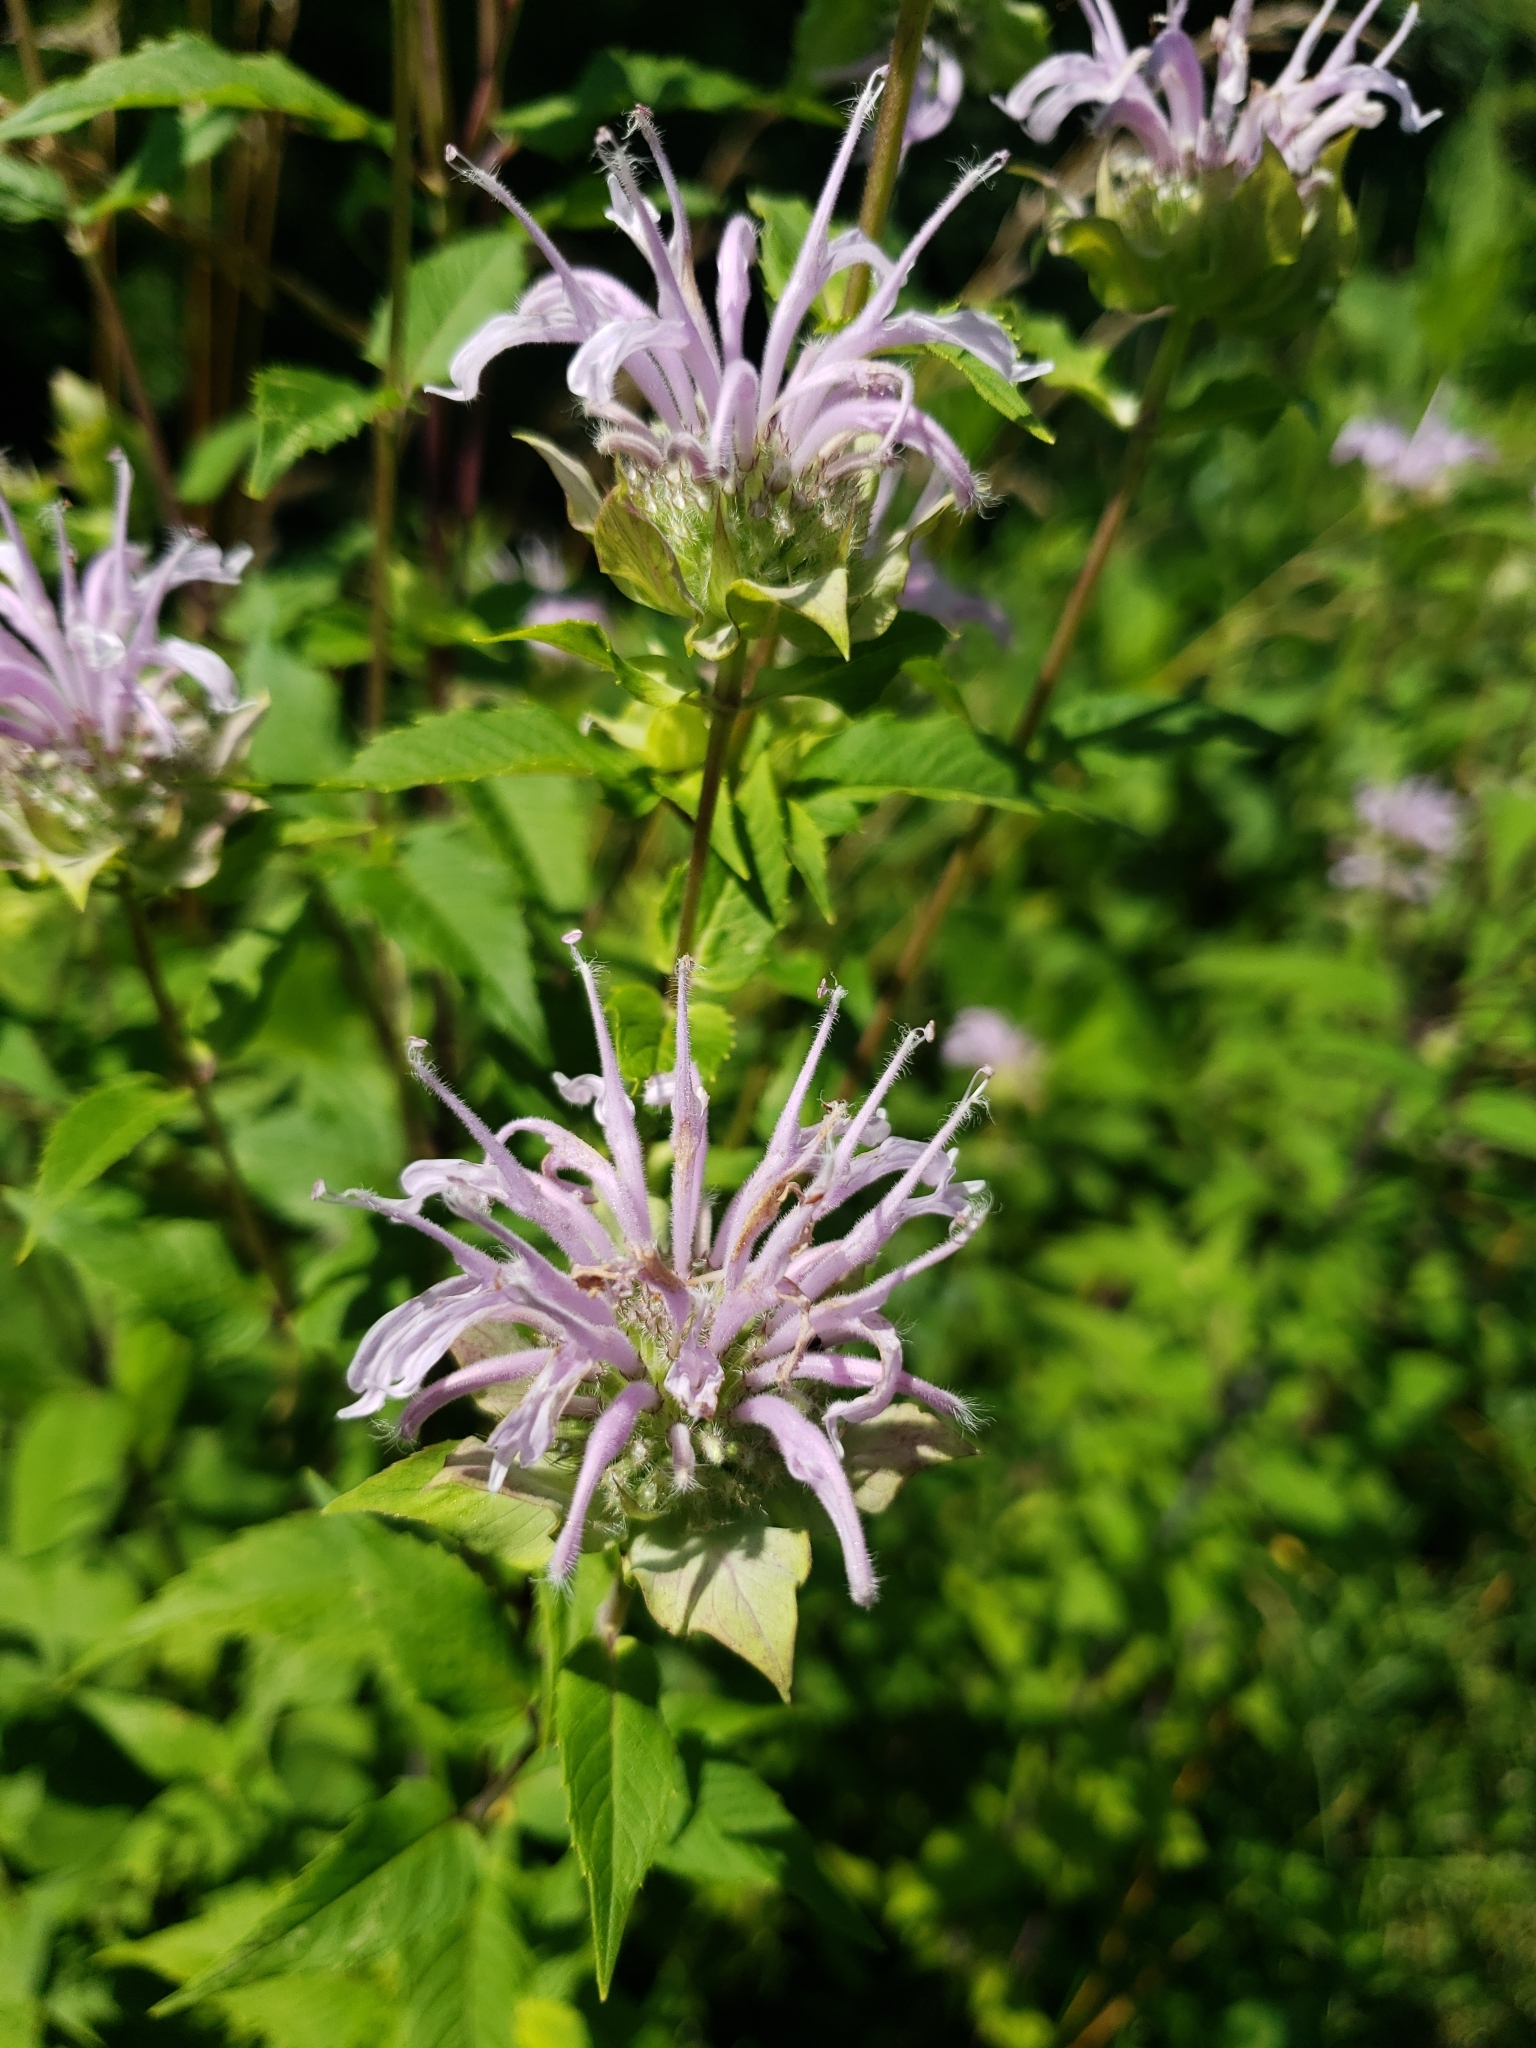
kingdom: Plantae
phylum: Tracheophyta
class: Magnoliopsida
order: Lamiales
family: Lamiaceae
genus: Monarda
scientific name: Monarda fistulosa
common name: Purple beebalm
